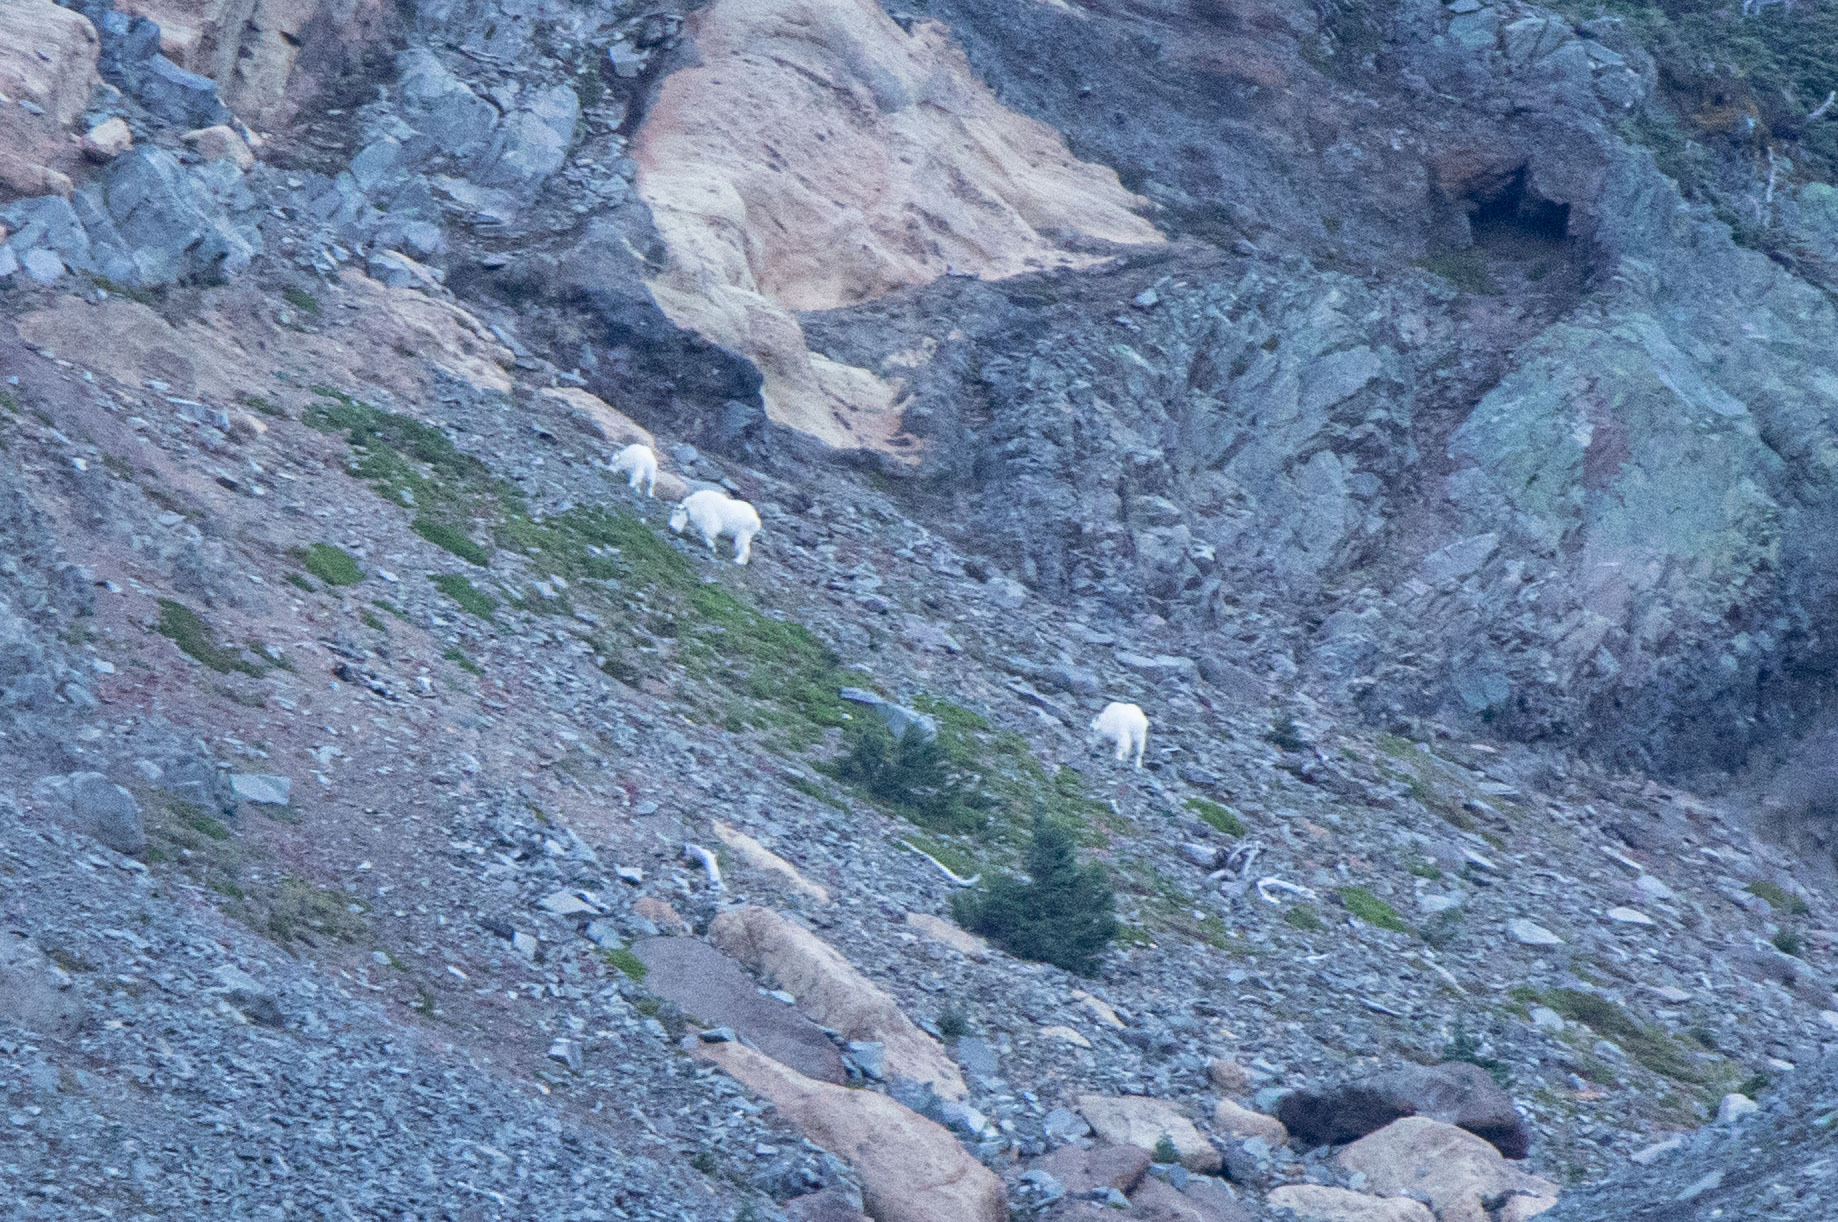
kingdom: Animalia
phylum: Chordata
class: Mammalia
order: Artiodactyla
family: Bovidae
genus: Oreamnos
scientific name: Oreamnos americanus
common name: Mountain goat
